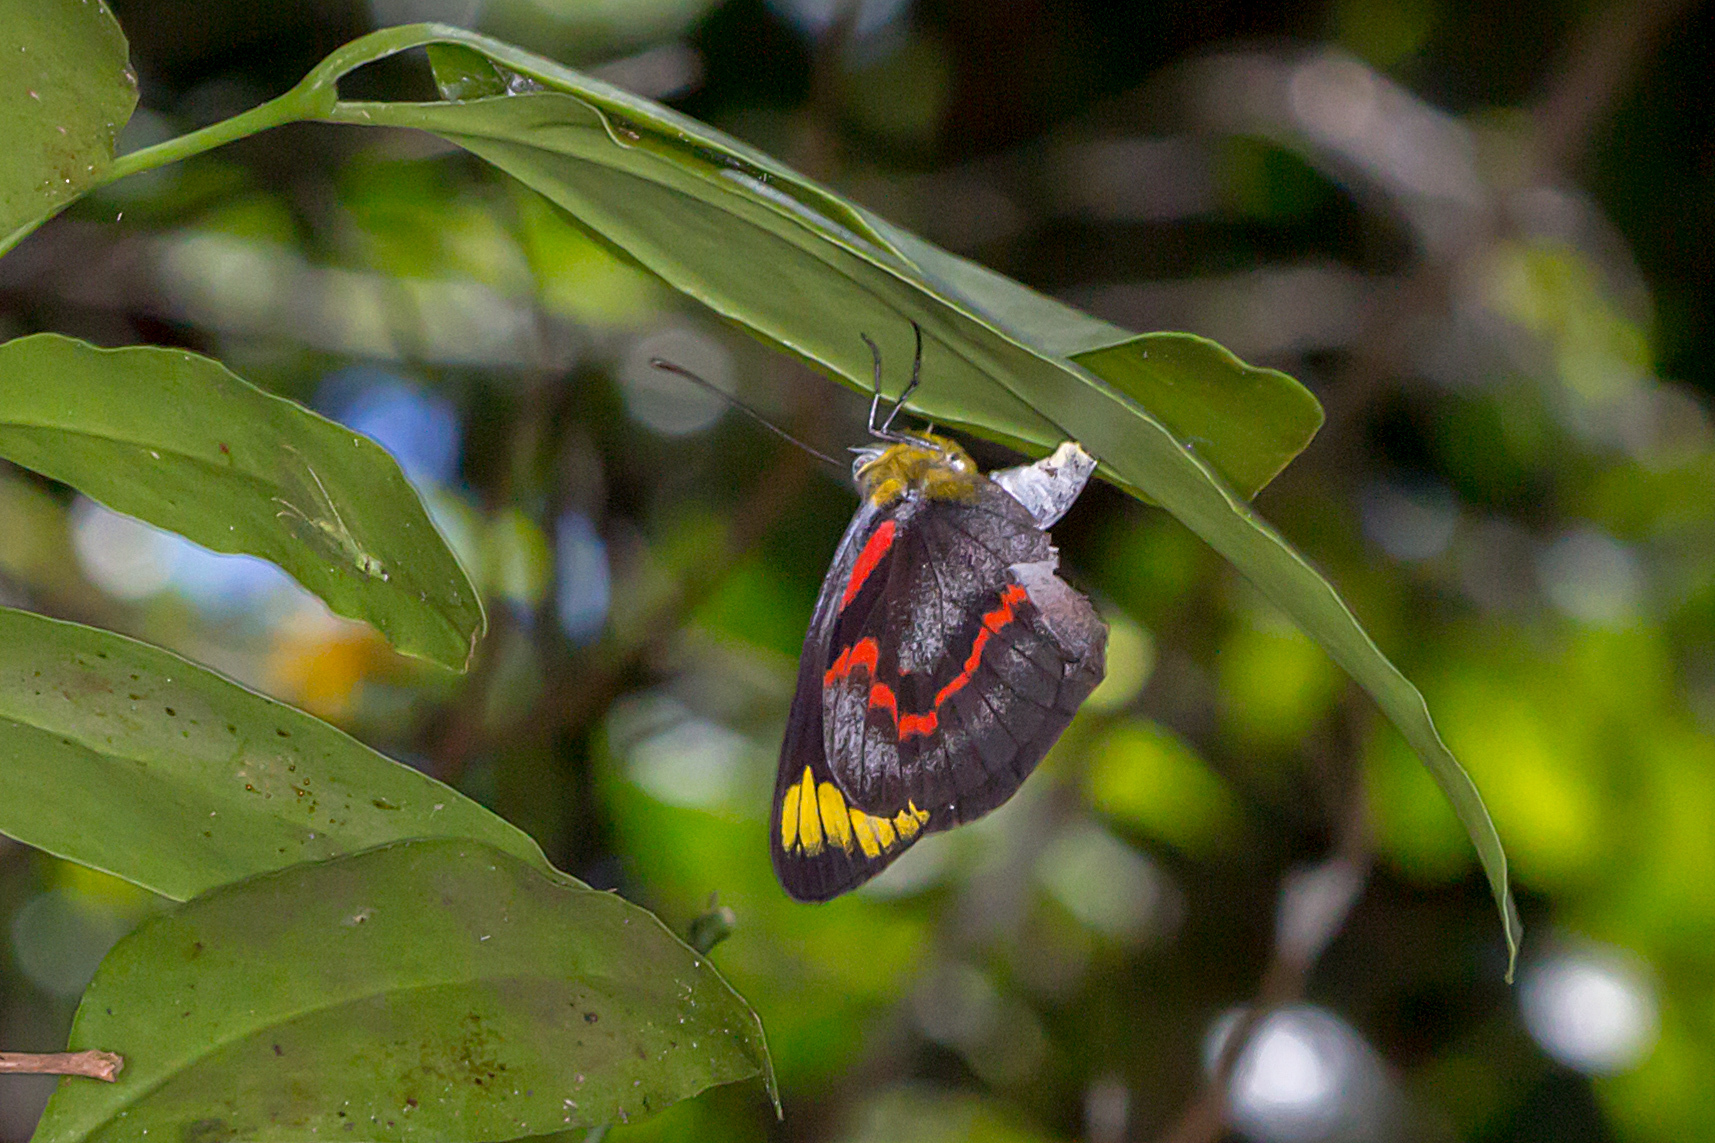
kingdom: Animalia
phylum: Arthropoda
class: Insecta
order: Lepidoptera
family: Pieridae
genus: Delias
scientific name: Delias nigrina
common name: Black jezebel
